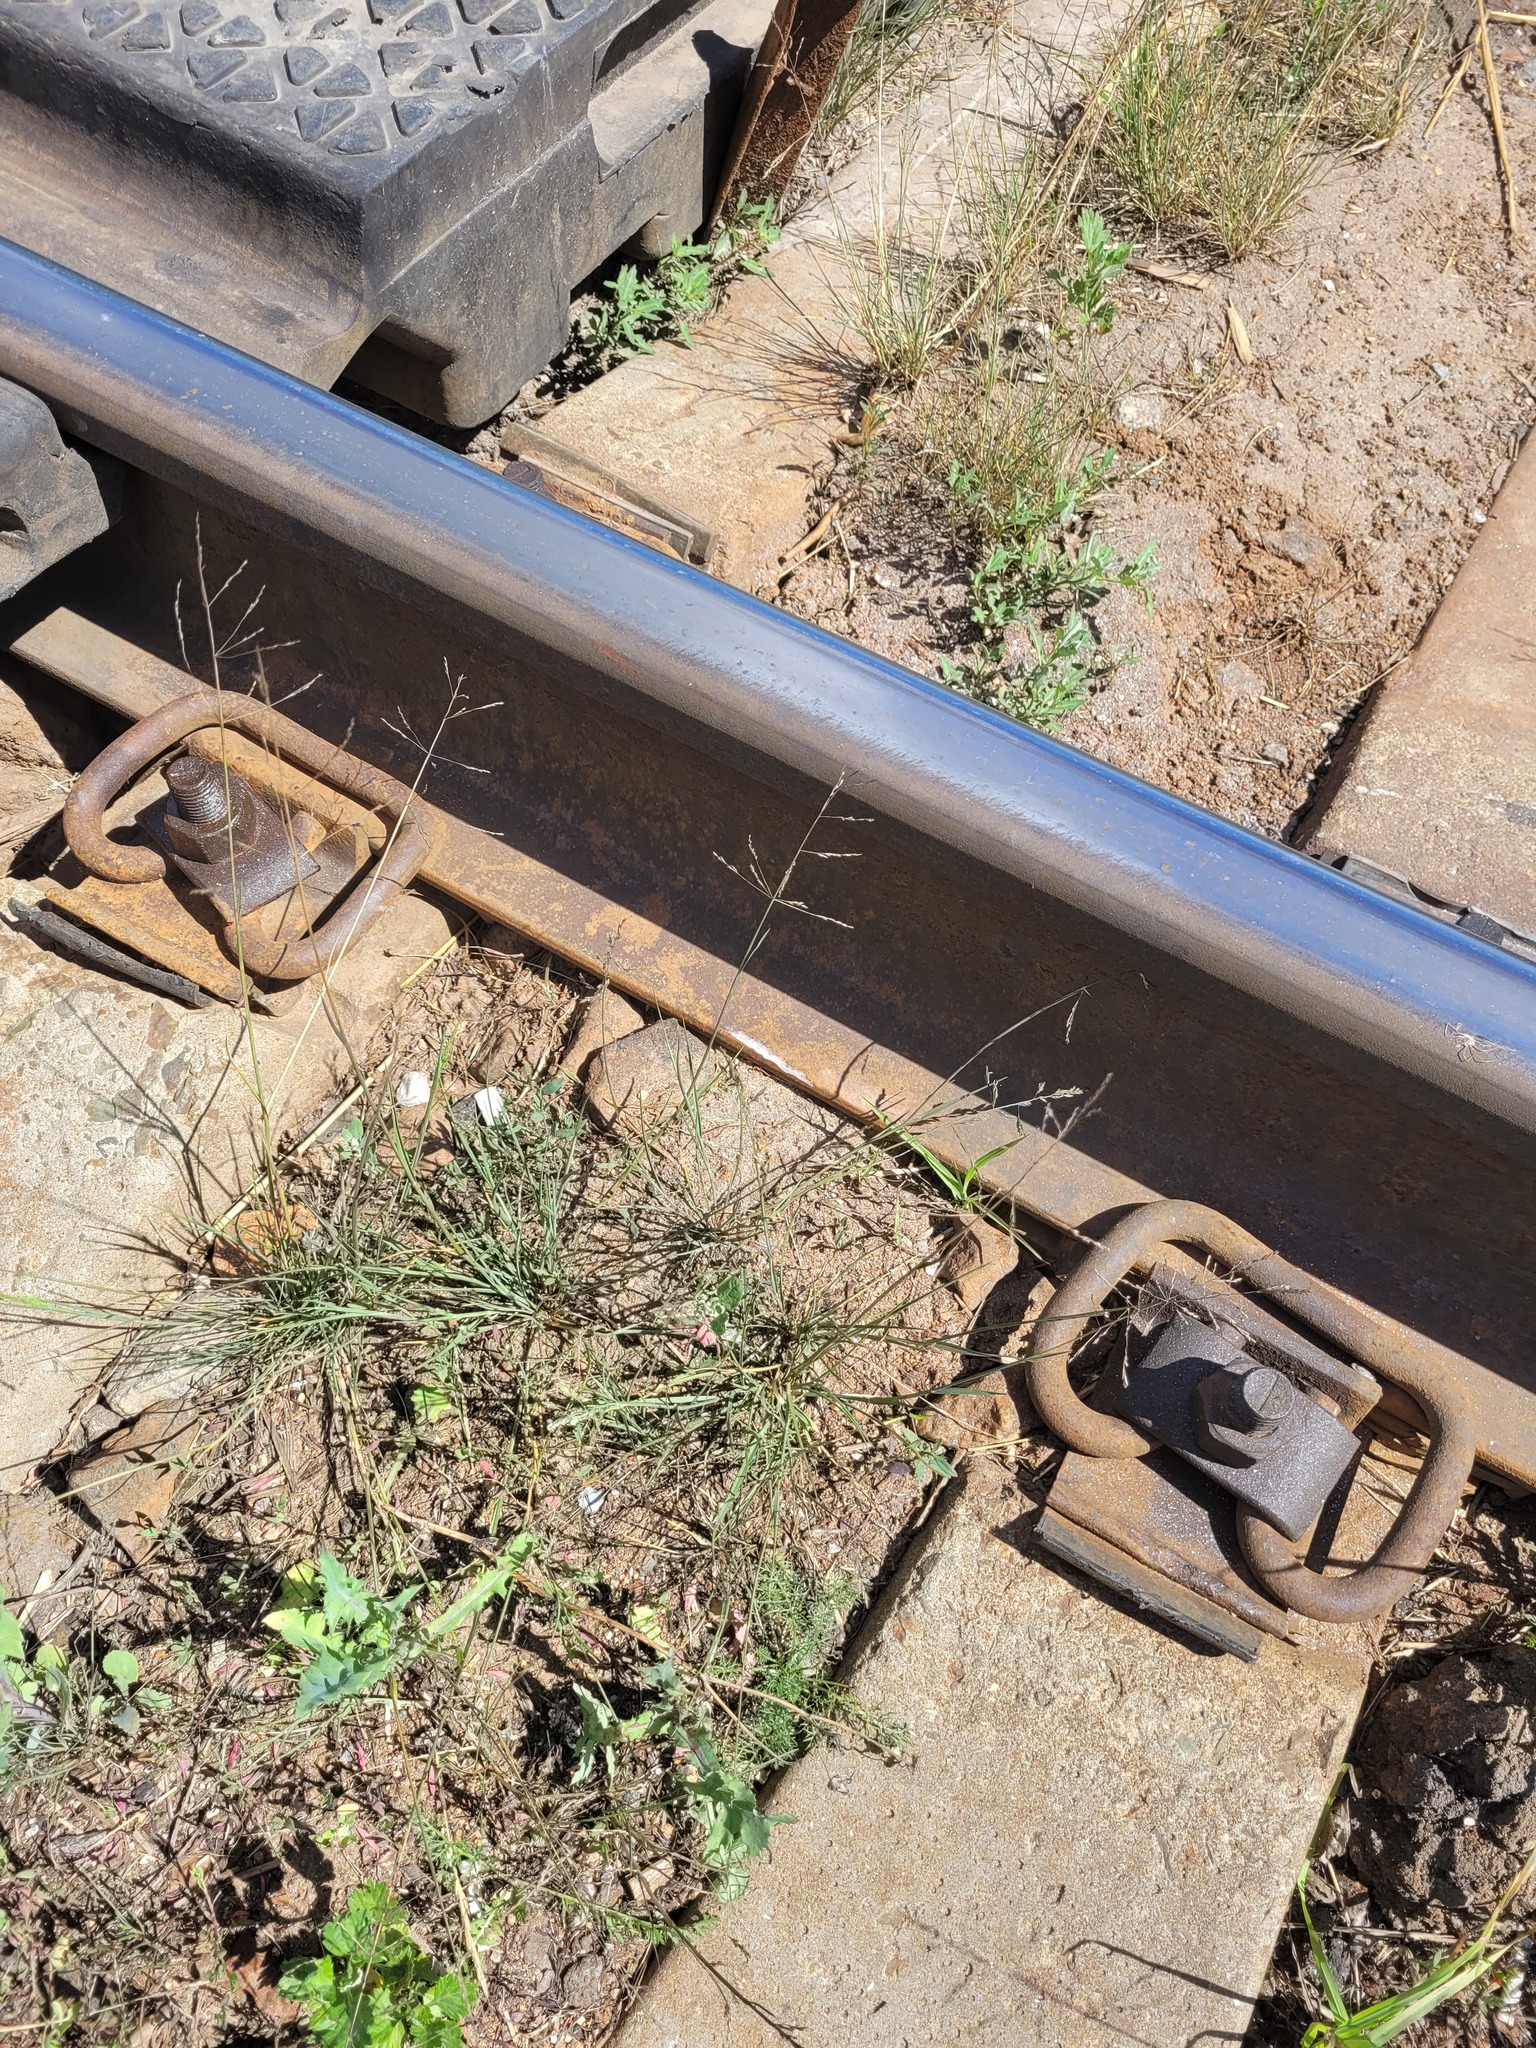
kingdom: Plantae
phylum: Tracheophyta
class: Liliopsida
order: Poales
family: Poaceae
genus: Puccinellia
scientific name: Puccinellia distans
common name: Weeping alkaligrass
